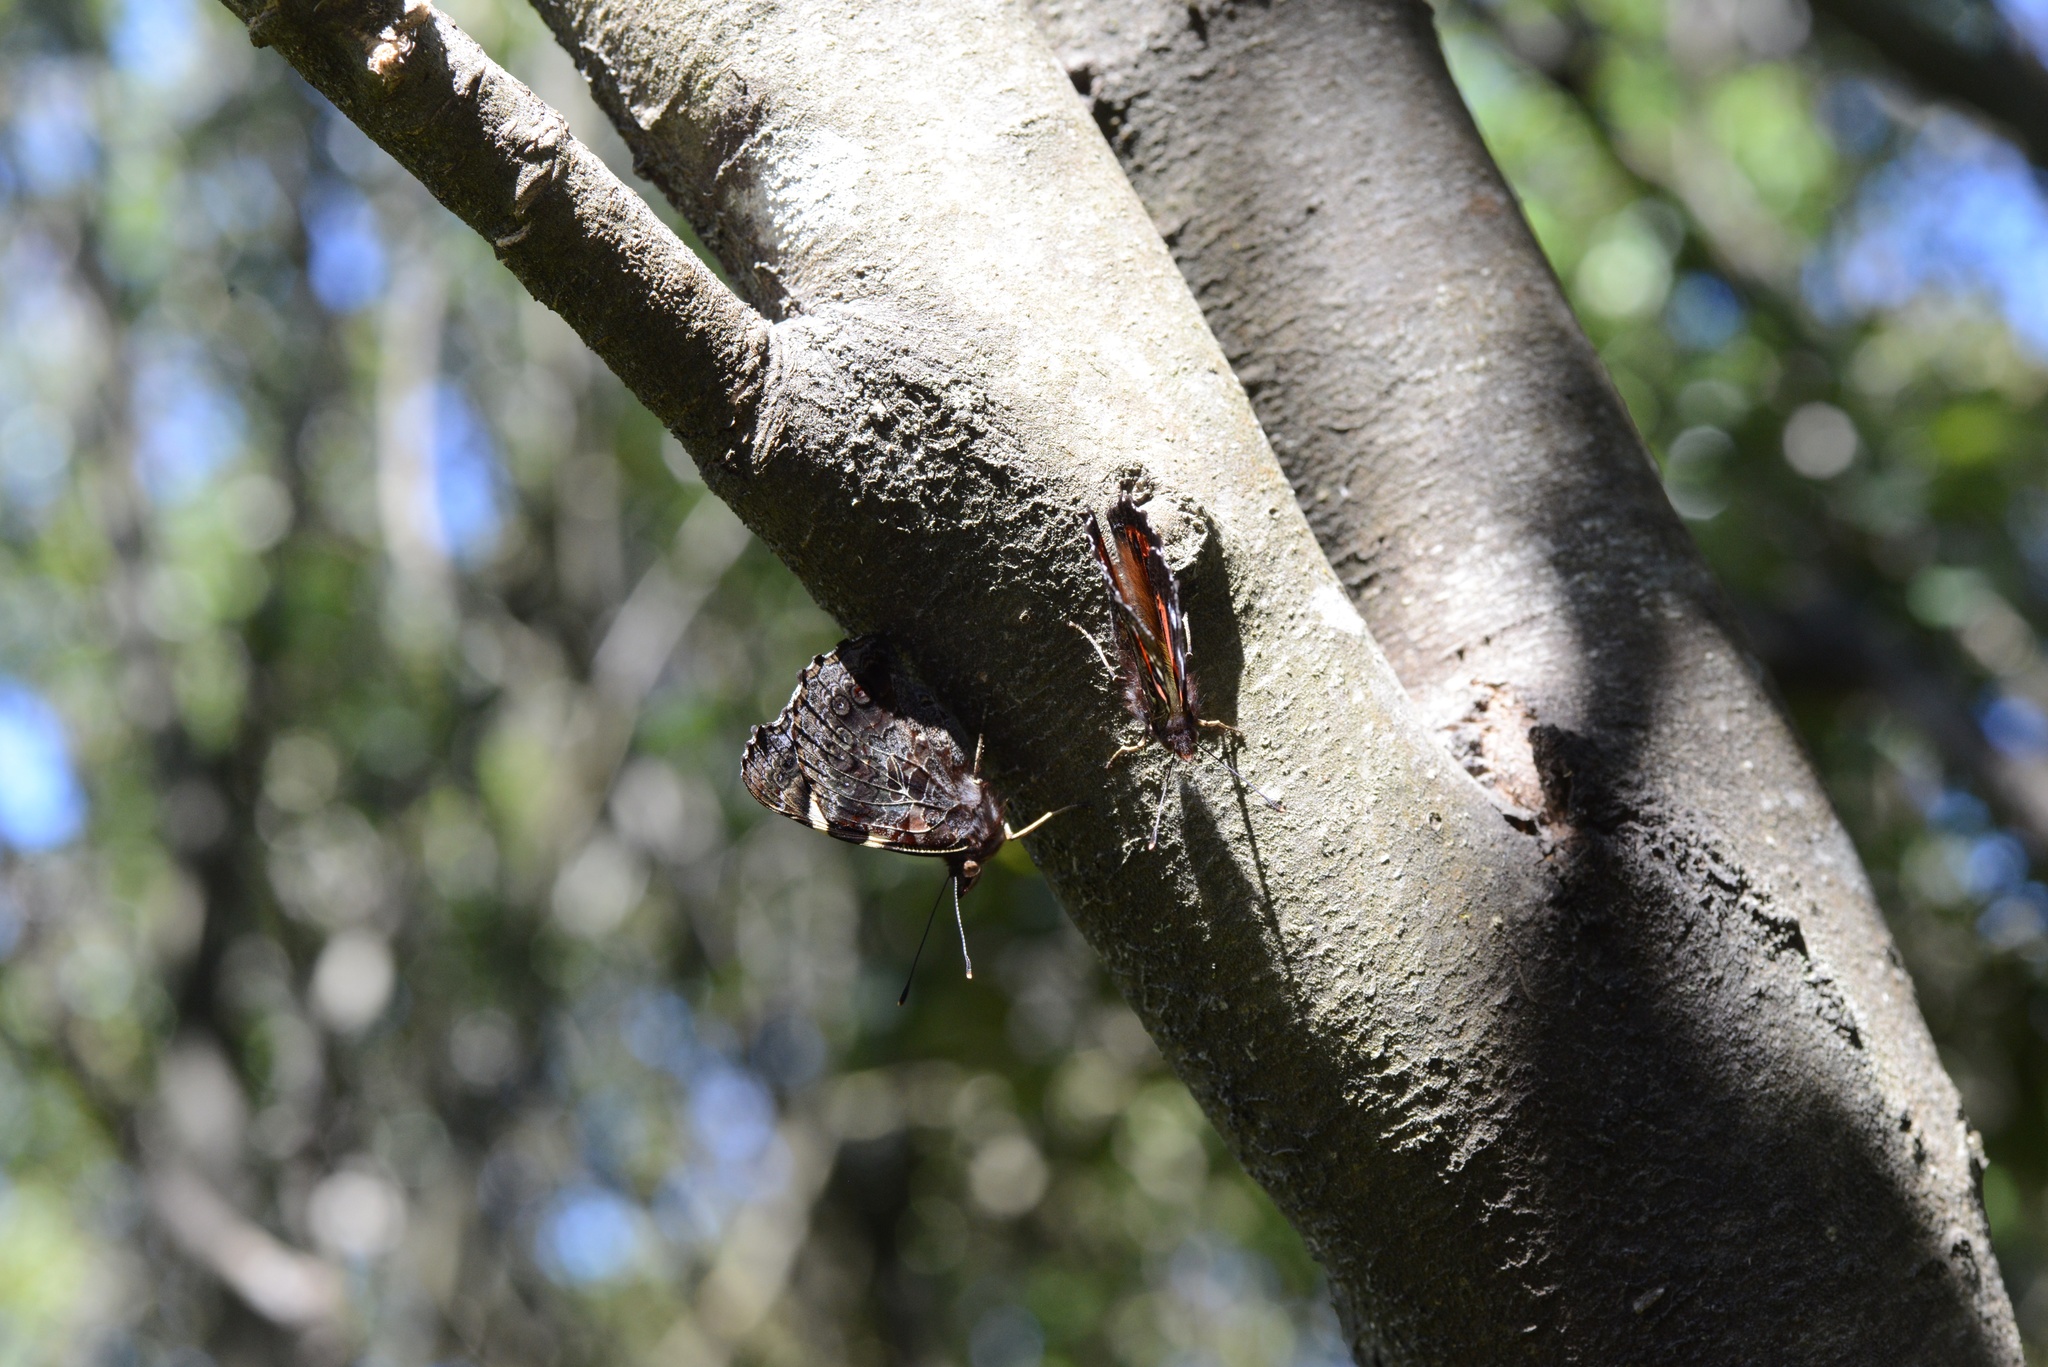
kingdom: Animalia
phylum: Arthropoda
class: Insecta
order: Lepidoptera
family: Nymphalidae
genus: Vanessa
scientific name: Vanessa gonerilla
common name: New zealand red admiral
